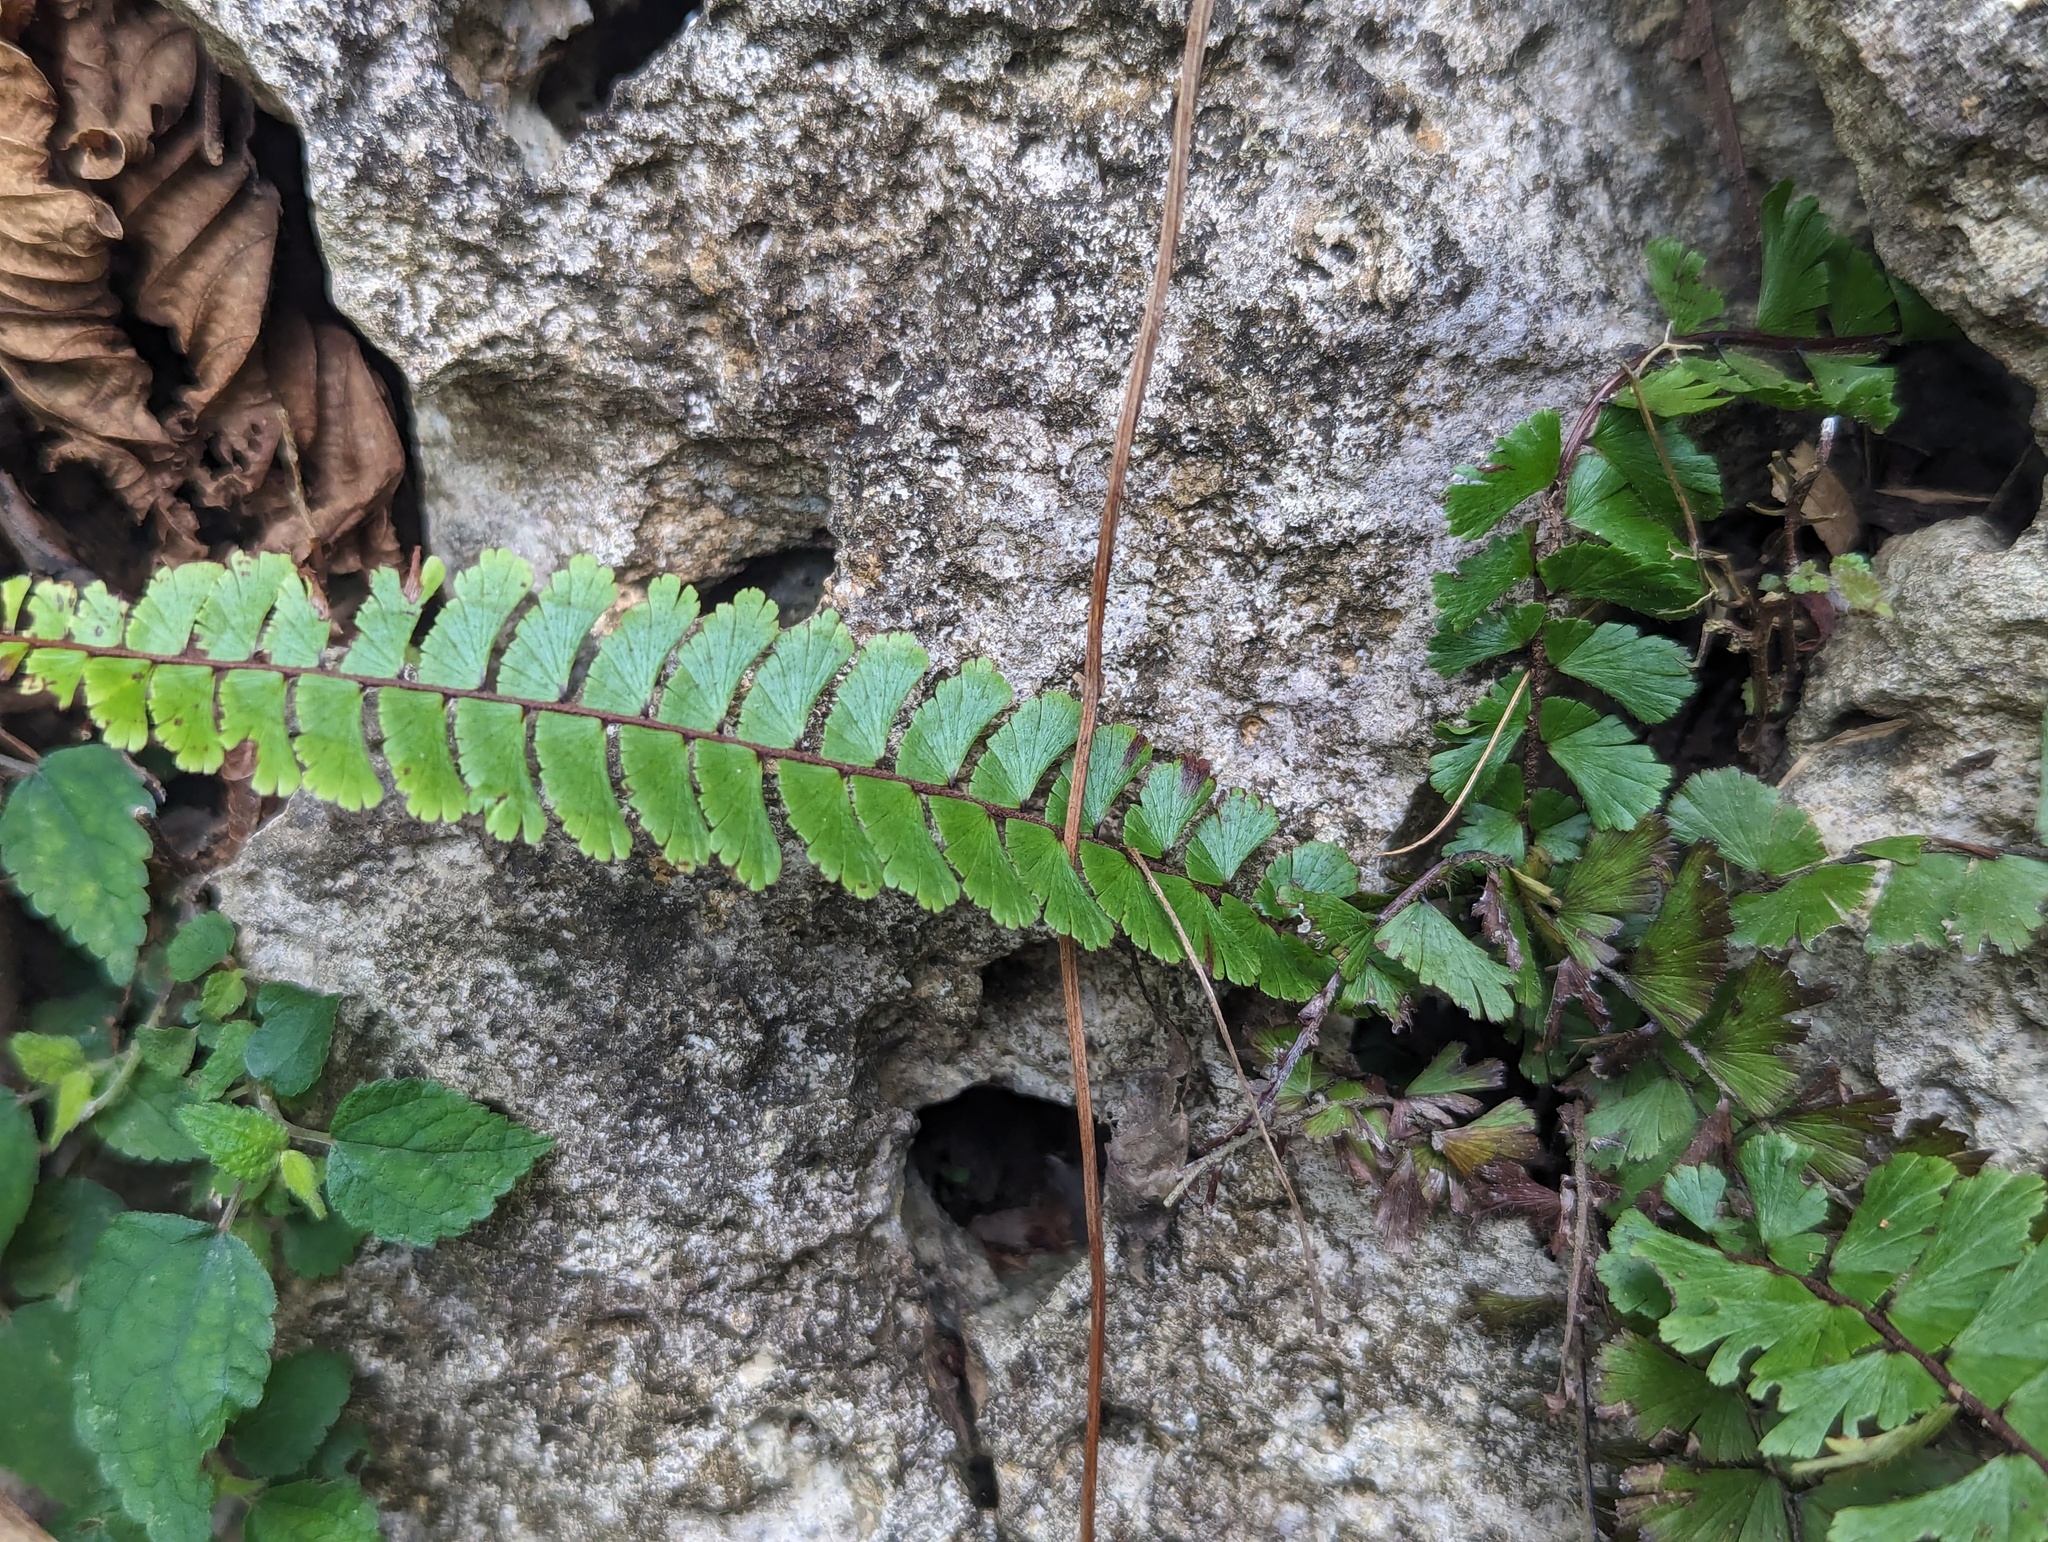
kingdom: Plantae
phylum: Tracheophyta
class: Polypodiopsida
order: Polypodiales
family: Pteridaceae
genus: Adiantum
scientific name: Adiantum caudatum
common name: Tailed maidenhair
